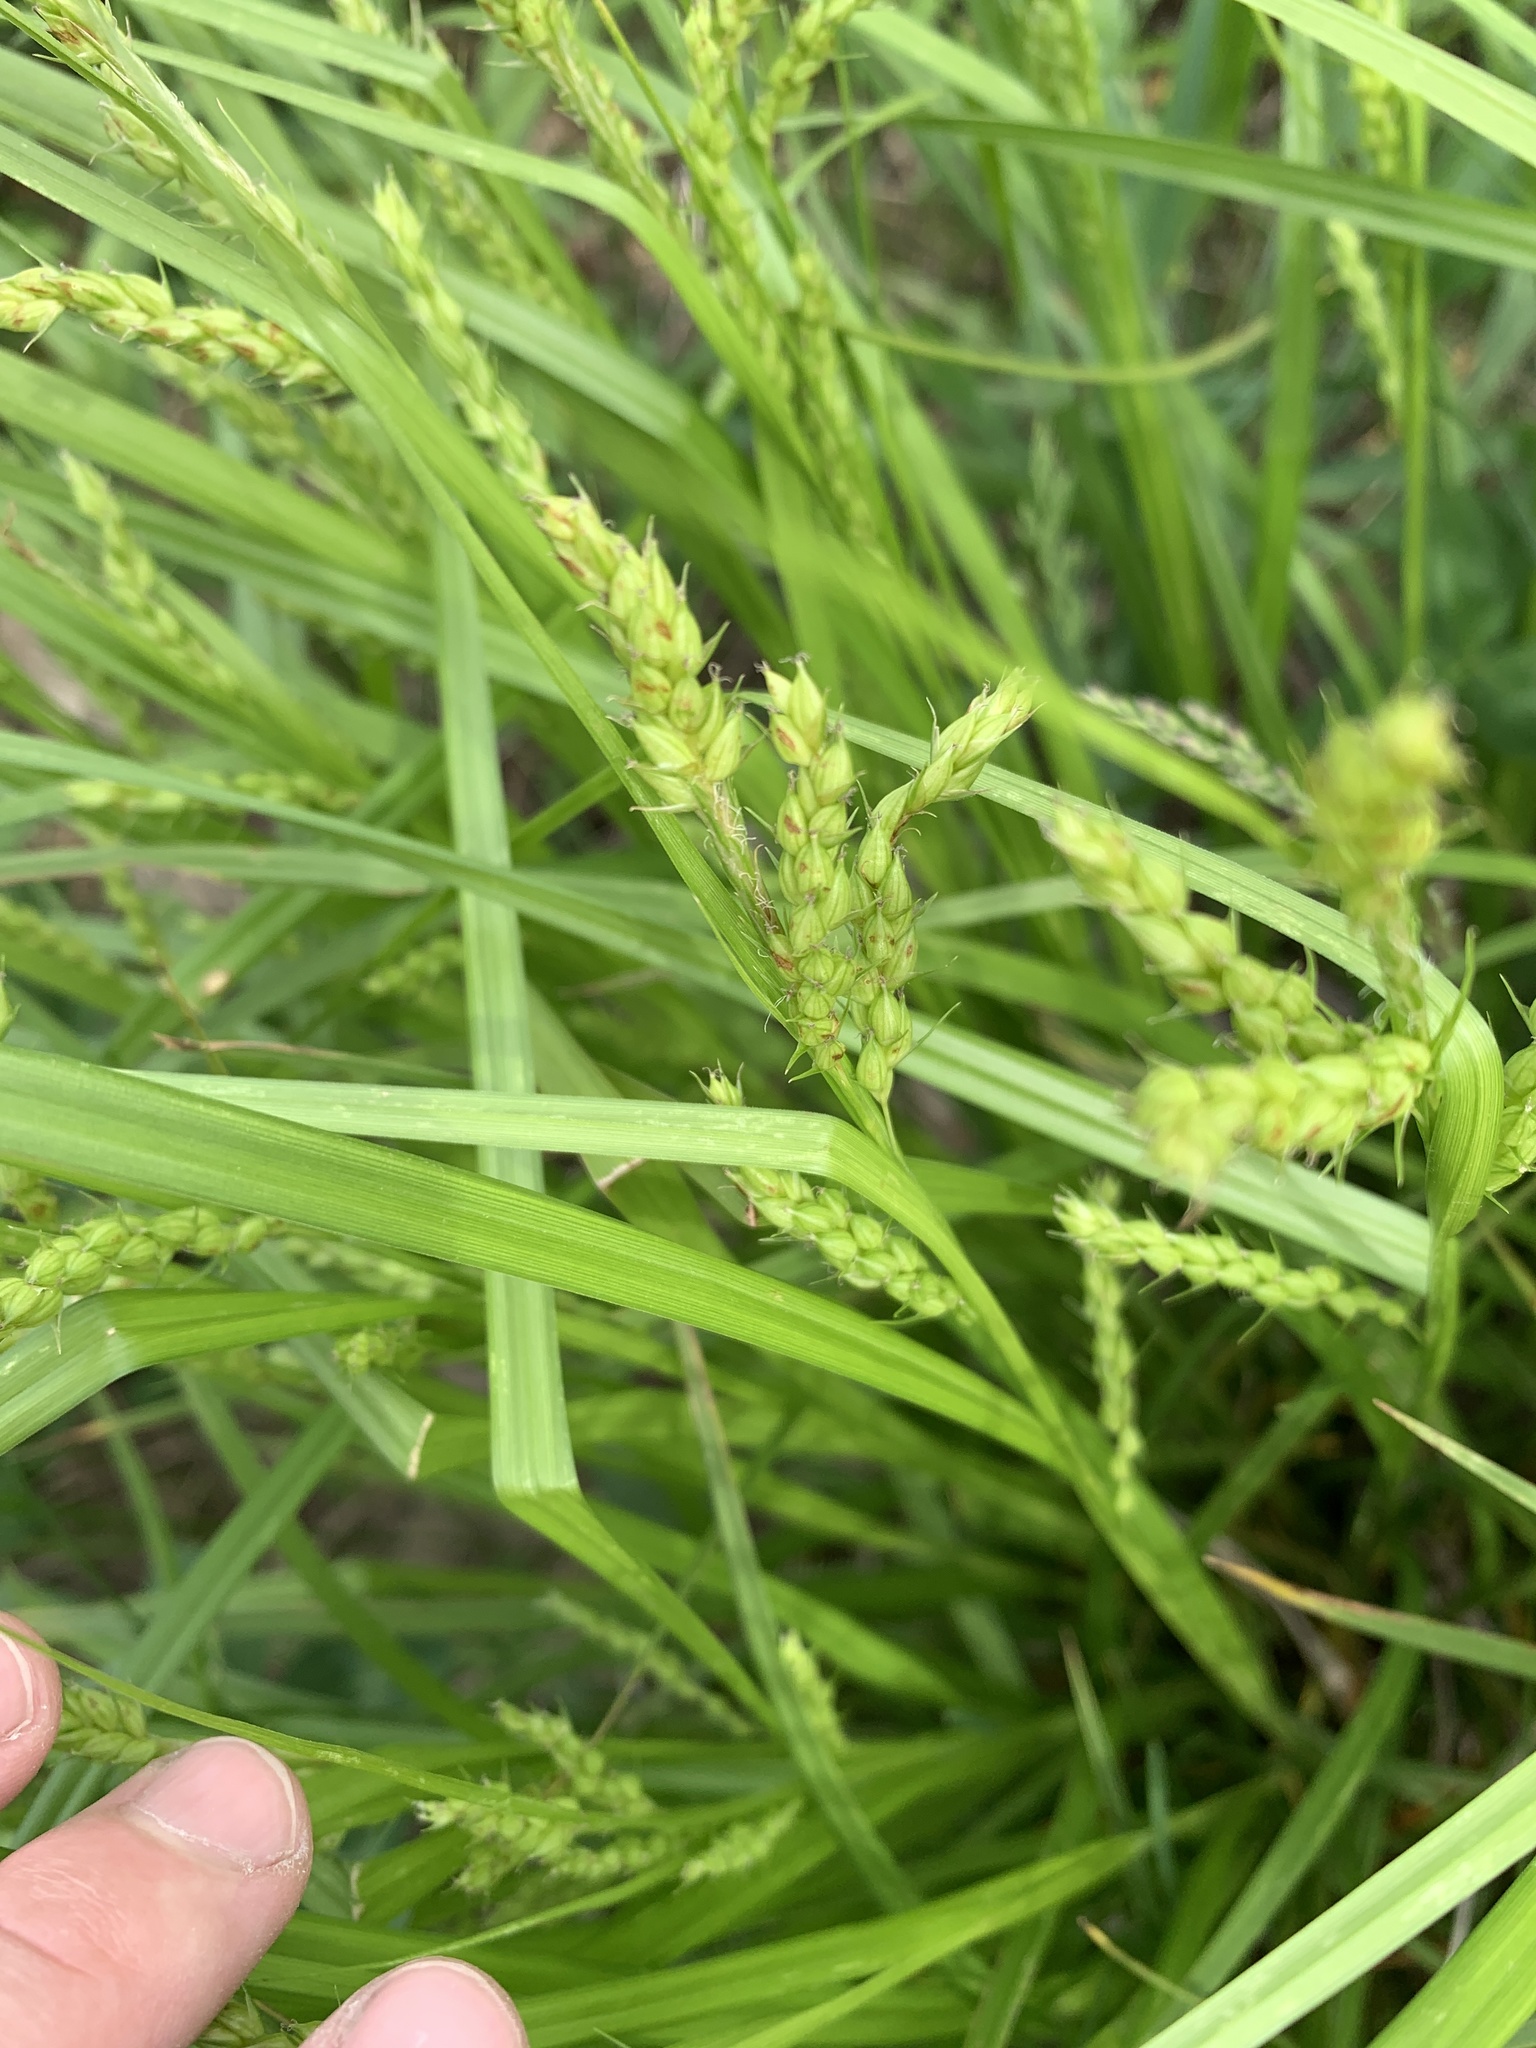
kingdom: Plantae
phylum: Tracheophyta
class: Liliopsida
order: Poales
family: Cyperaceae
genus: Carex
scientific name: Carex davisii
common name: Davis' sedge
